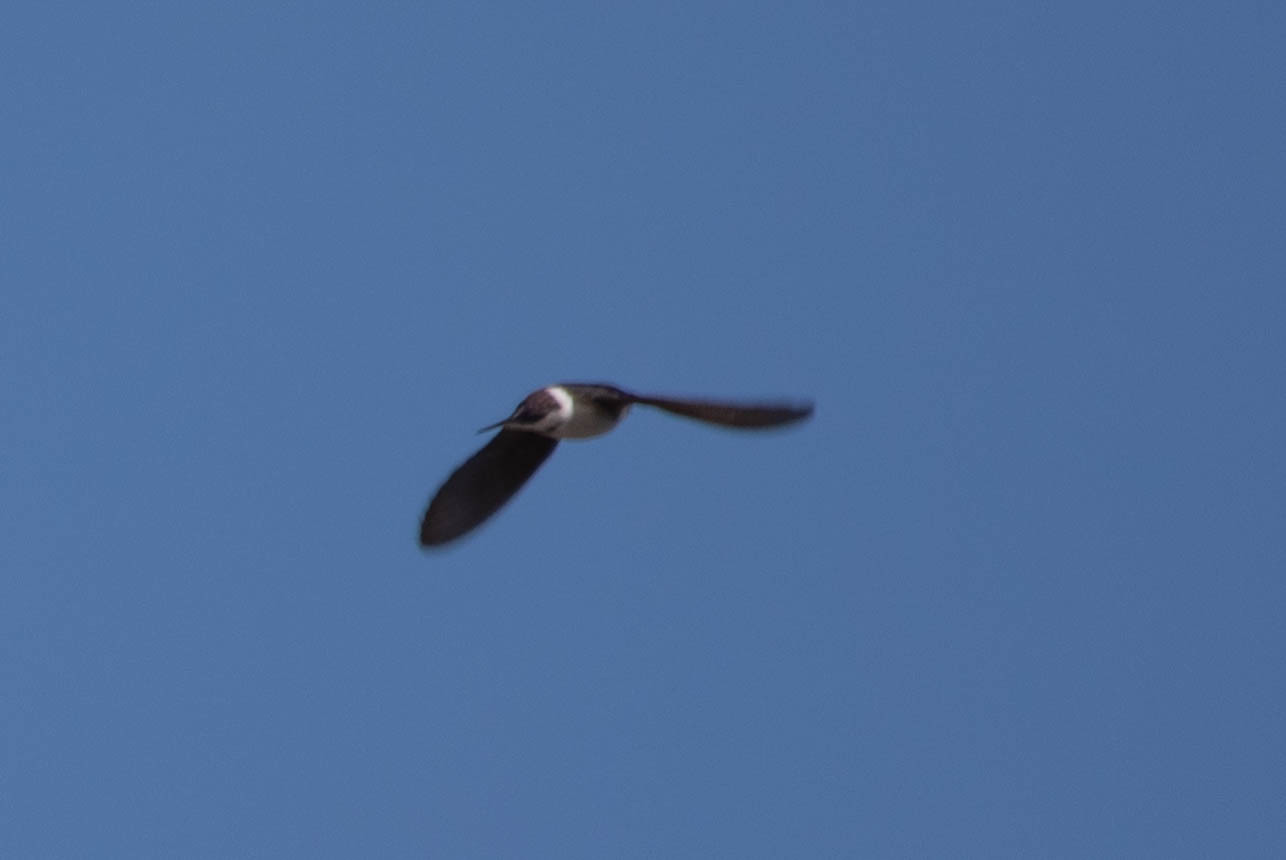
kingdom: Animalia
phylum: Chordata
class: Aves
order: Passeriformes
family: Hirundinidae
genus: Tachycineta
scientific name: Tachycineta thalassina
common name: Violet-green swallow
